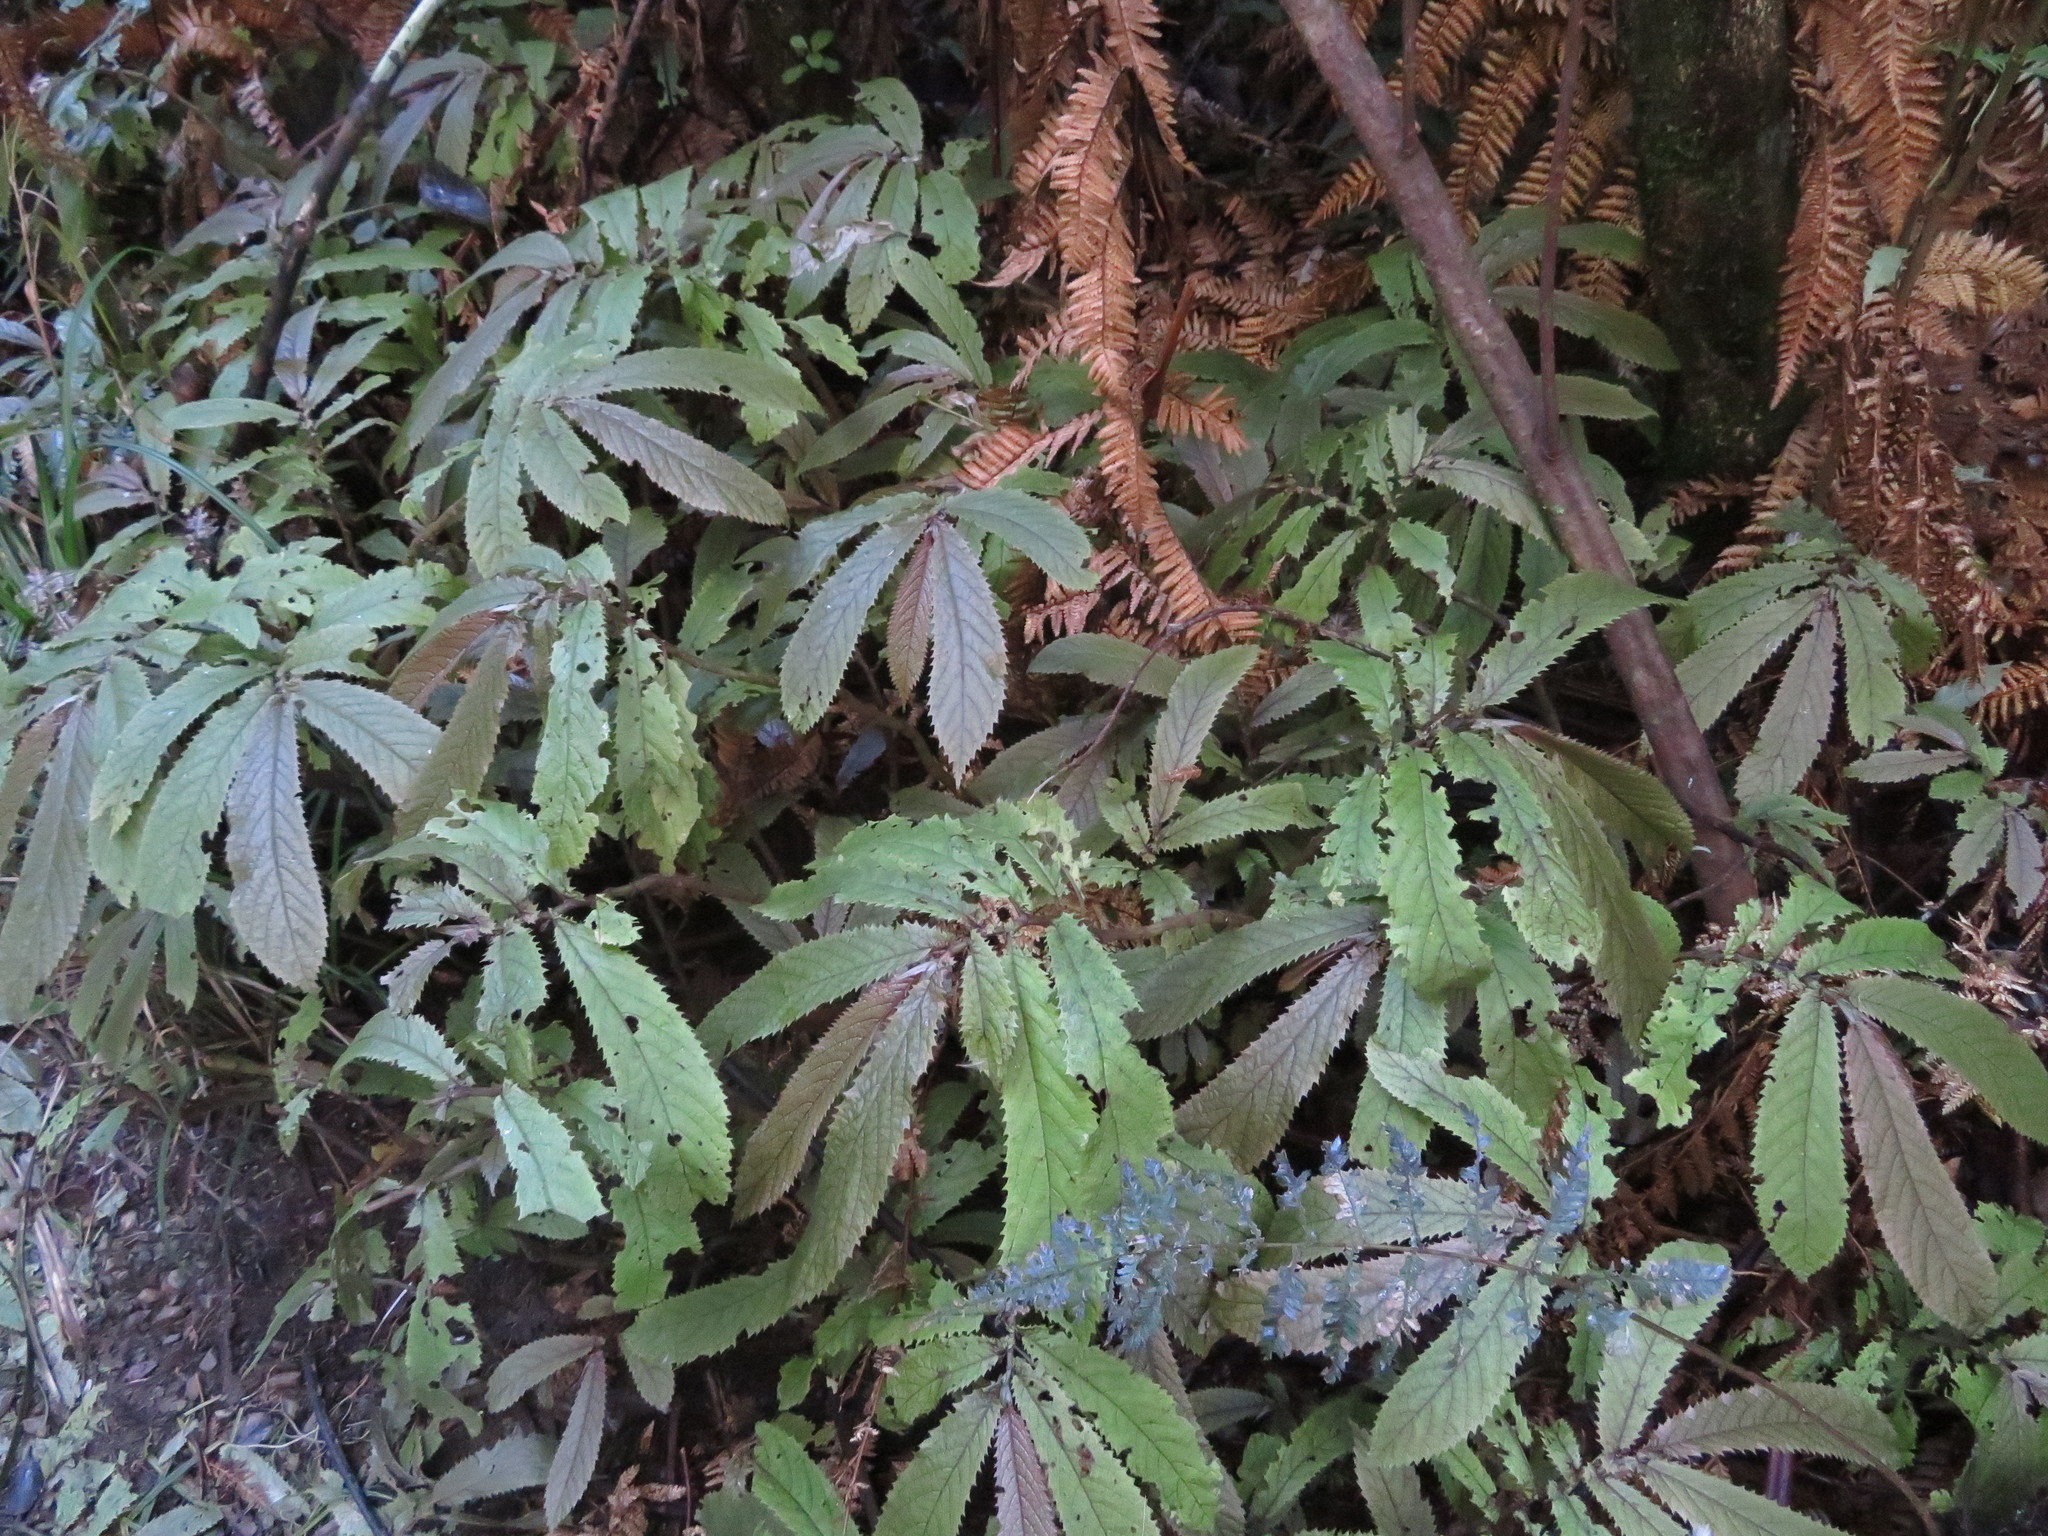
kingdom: Plantae
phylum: Tracheophyta
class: Magnoliopsida
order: Rosales
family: Urticaceae
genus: Elatostema
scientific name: Elatostema rugosum
